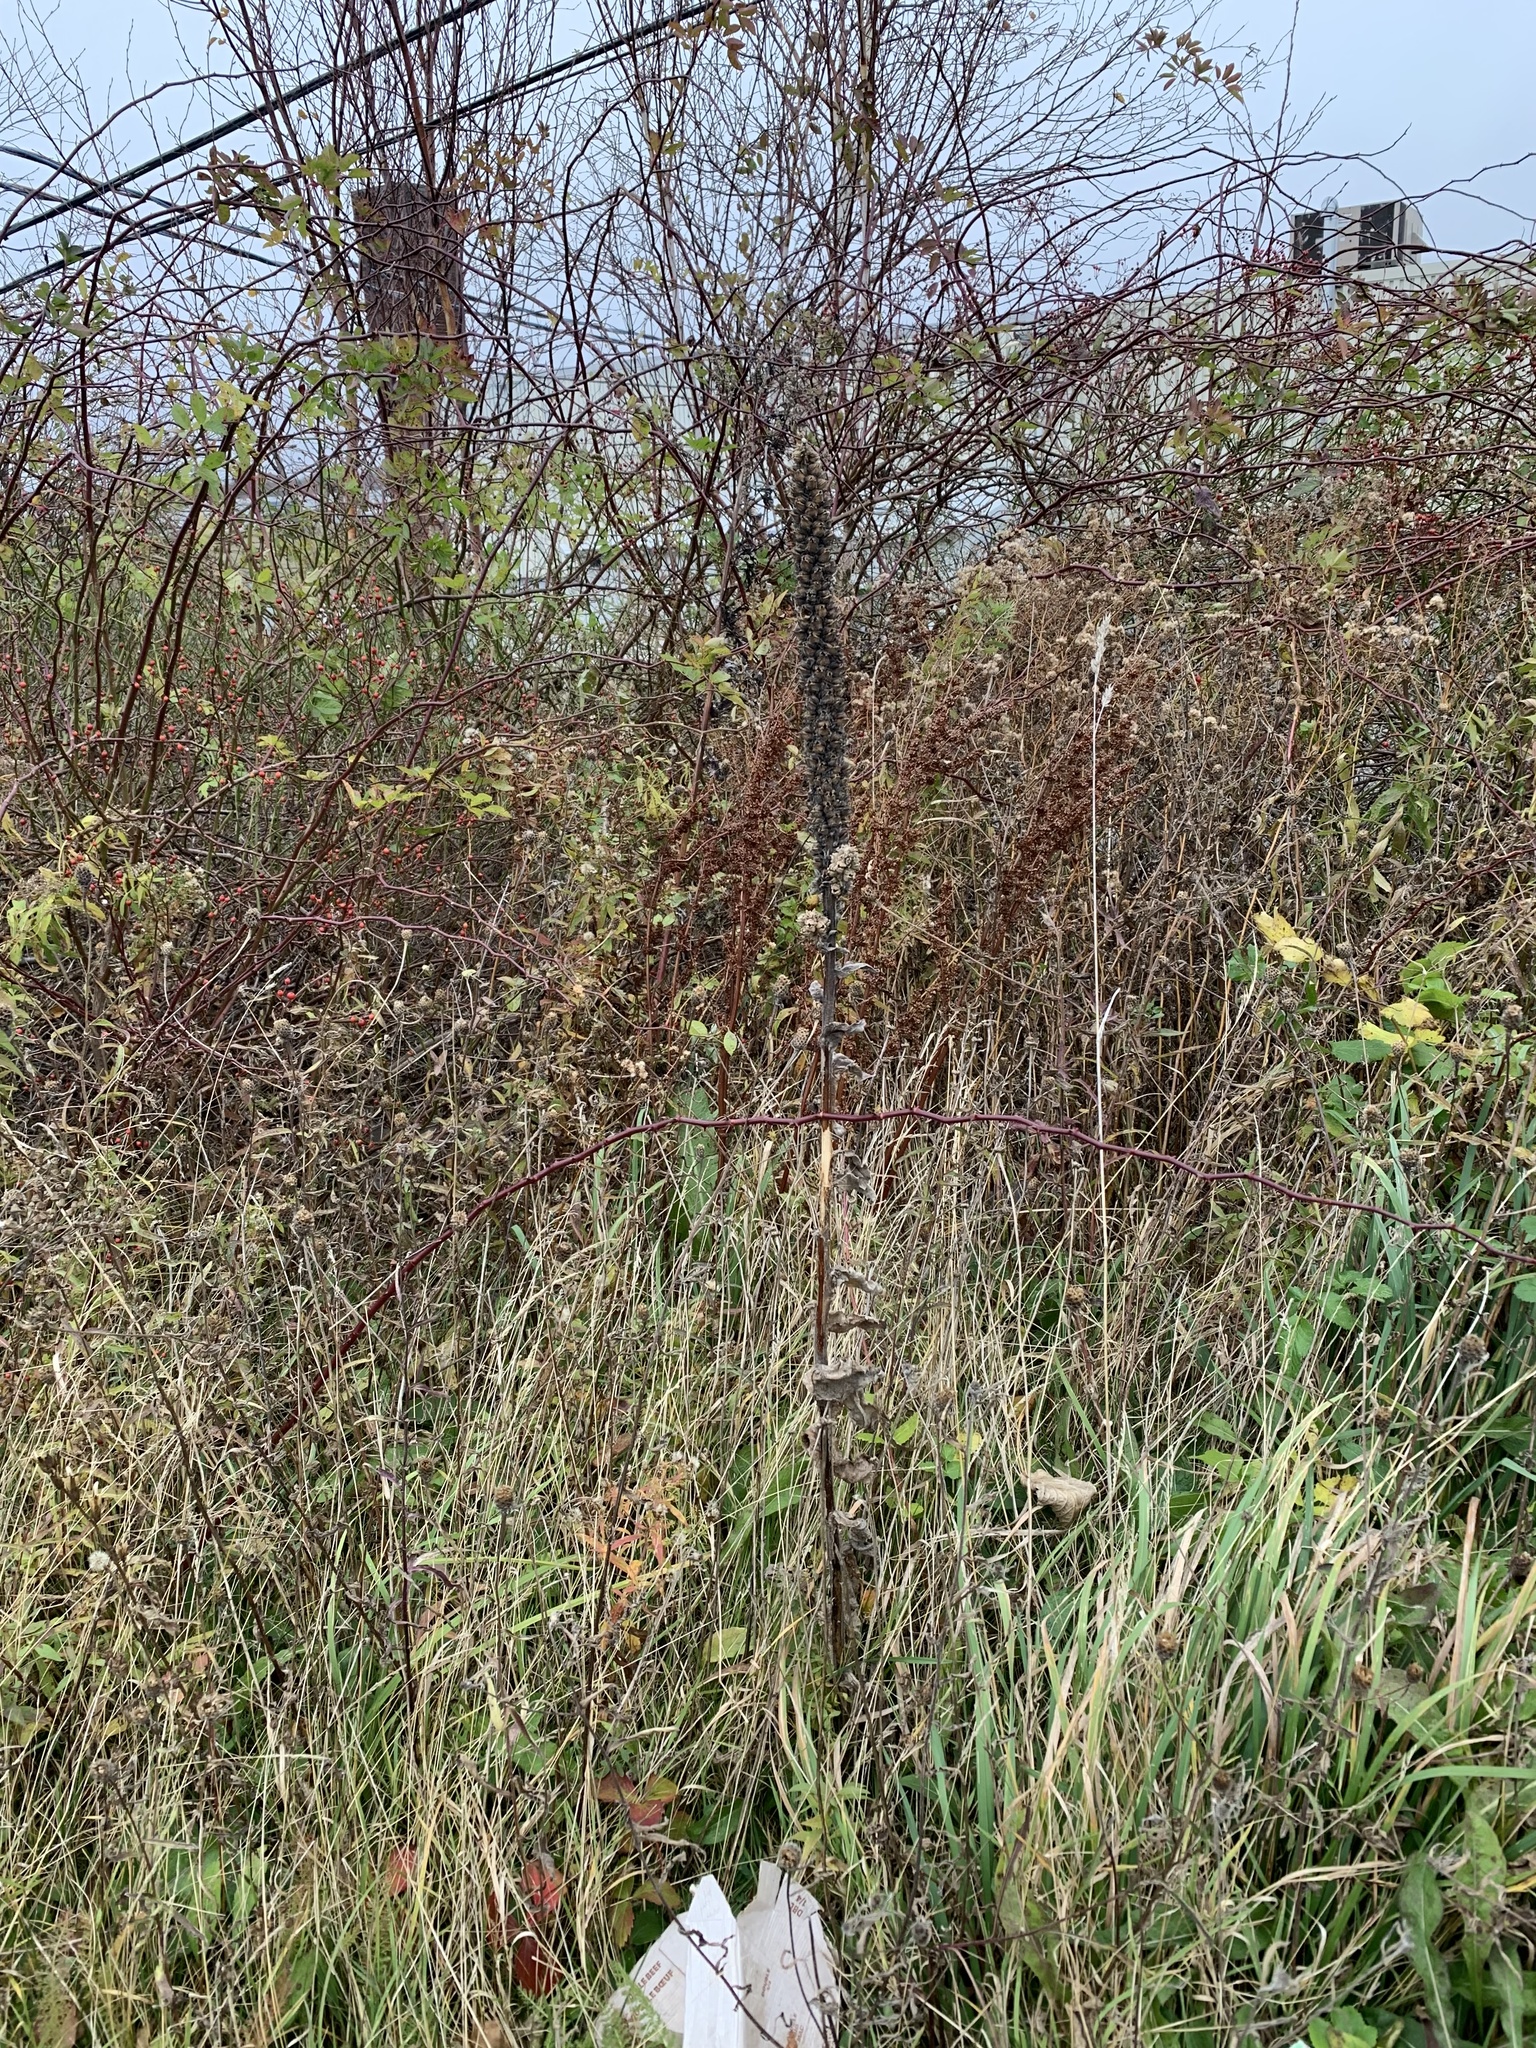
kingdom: Plantae
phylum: Tracheophyta
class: Magnoliopsida
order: Lamiales
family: Scrophulariaceae
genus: Verbascum
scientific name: Verbascum thapsus
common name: Common mullein
